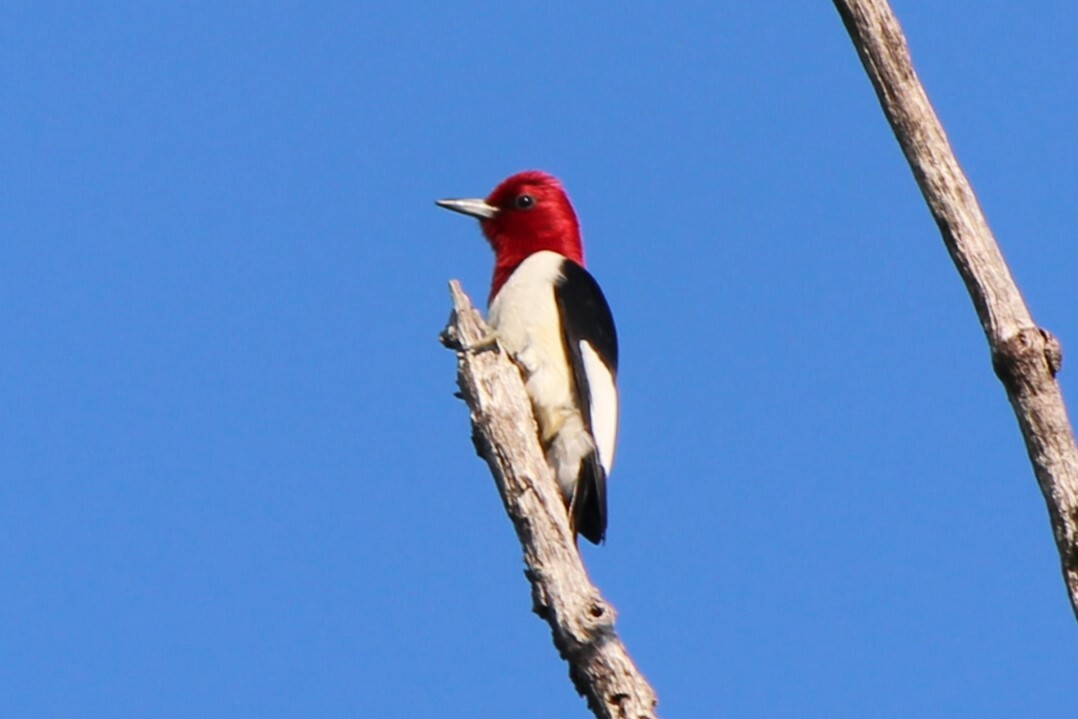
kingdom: Animalia
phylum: Chordata
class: Aves
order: Piciformes
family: Picidae
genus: Melanerpes
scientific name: Melanerpes erythrocephalus
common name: Red-headed woodpecker
